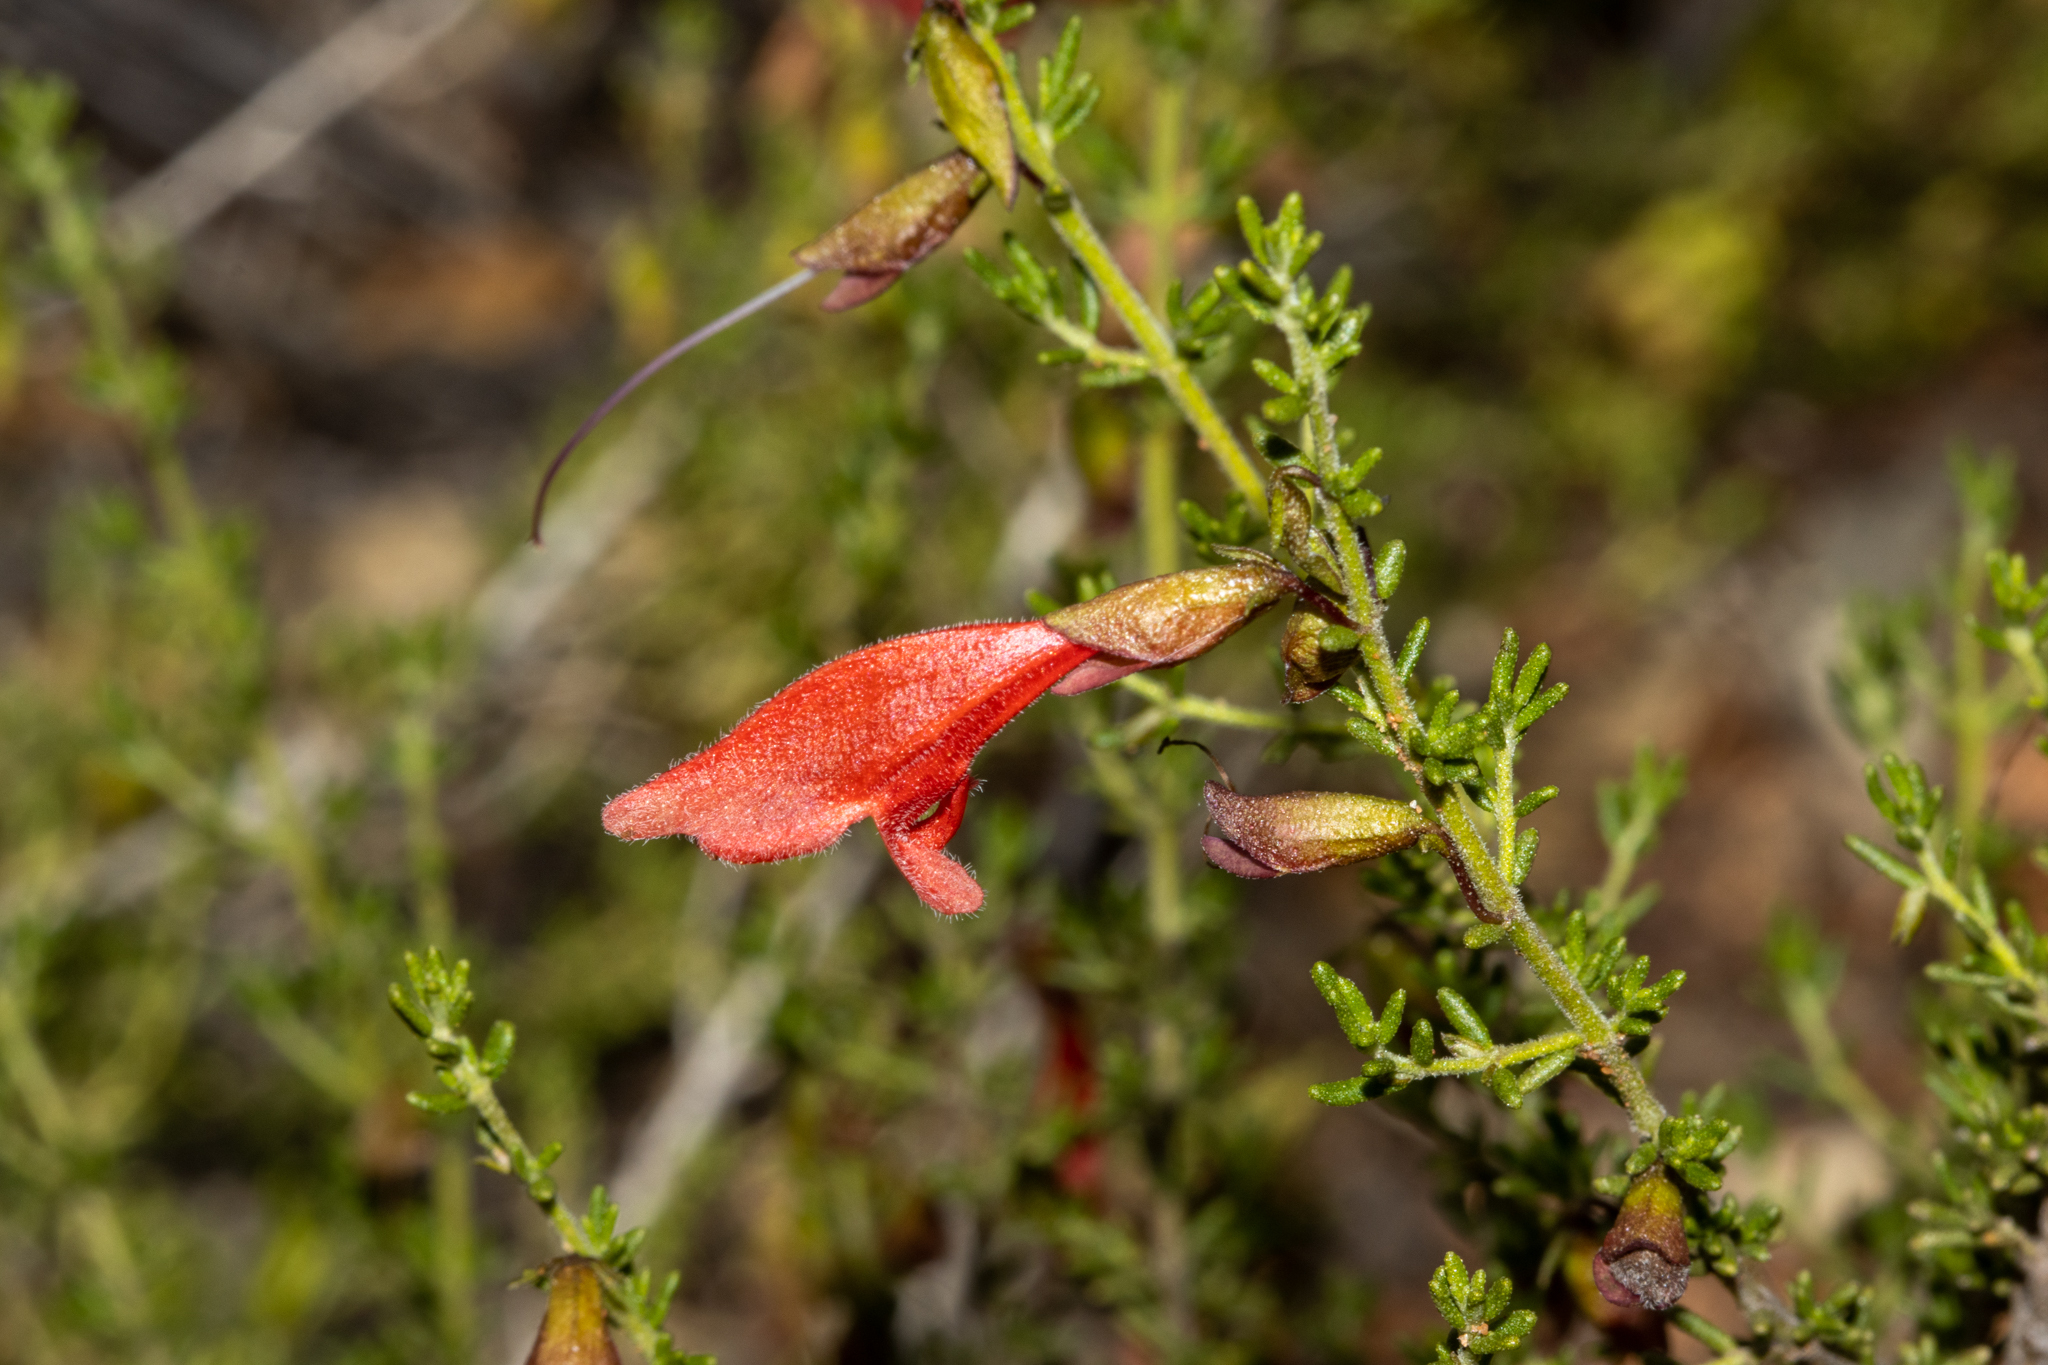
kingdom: Plantae
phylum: Tracheophyta
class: Magnoliopsida
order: Lamiales
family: Lamiaceae
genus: Prostanthera
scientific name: Prostanthera aspalathoides
